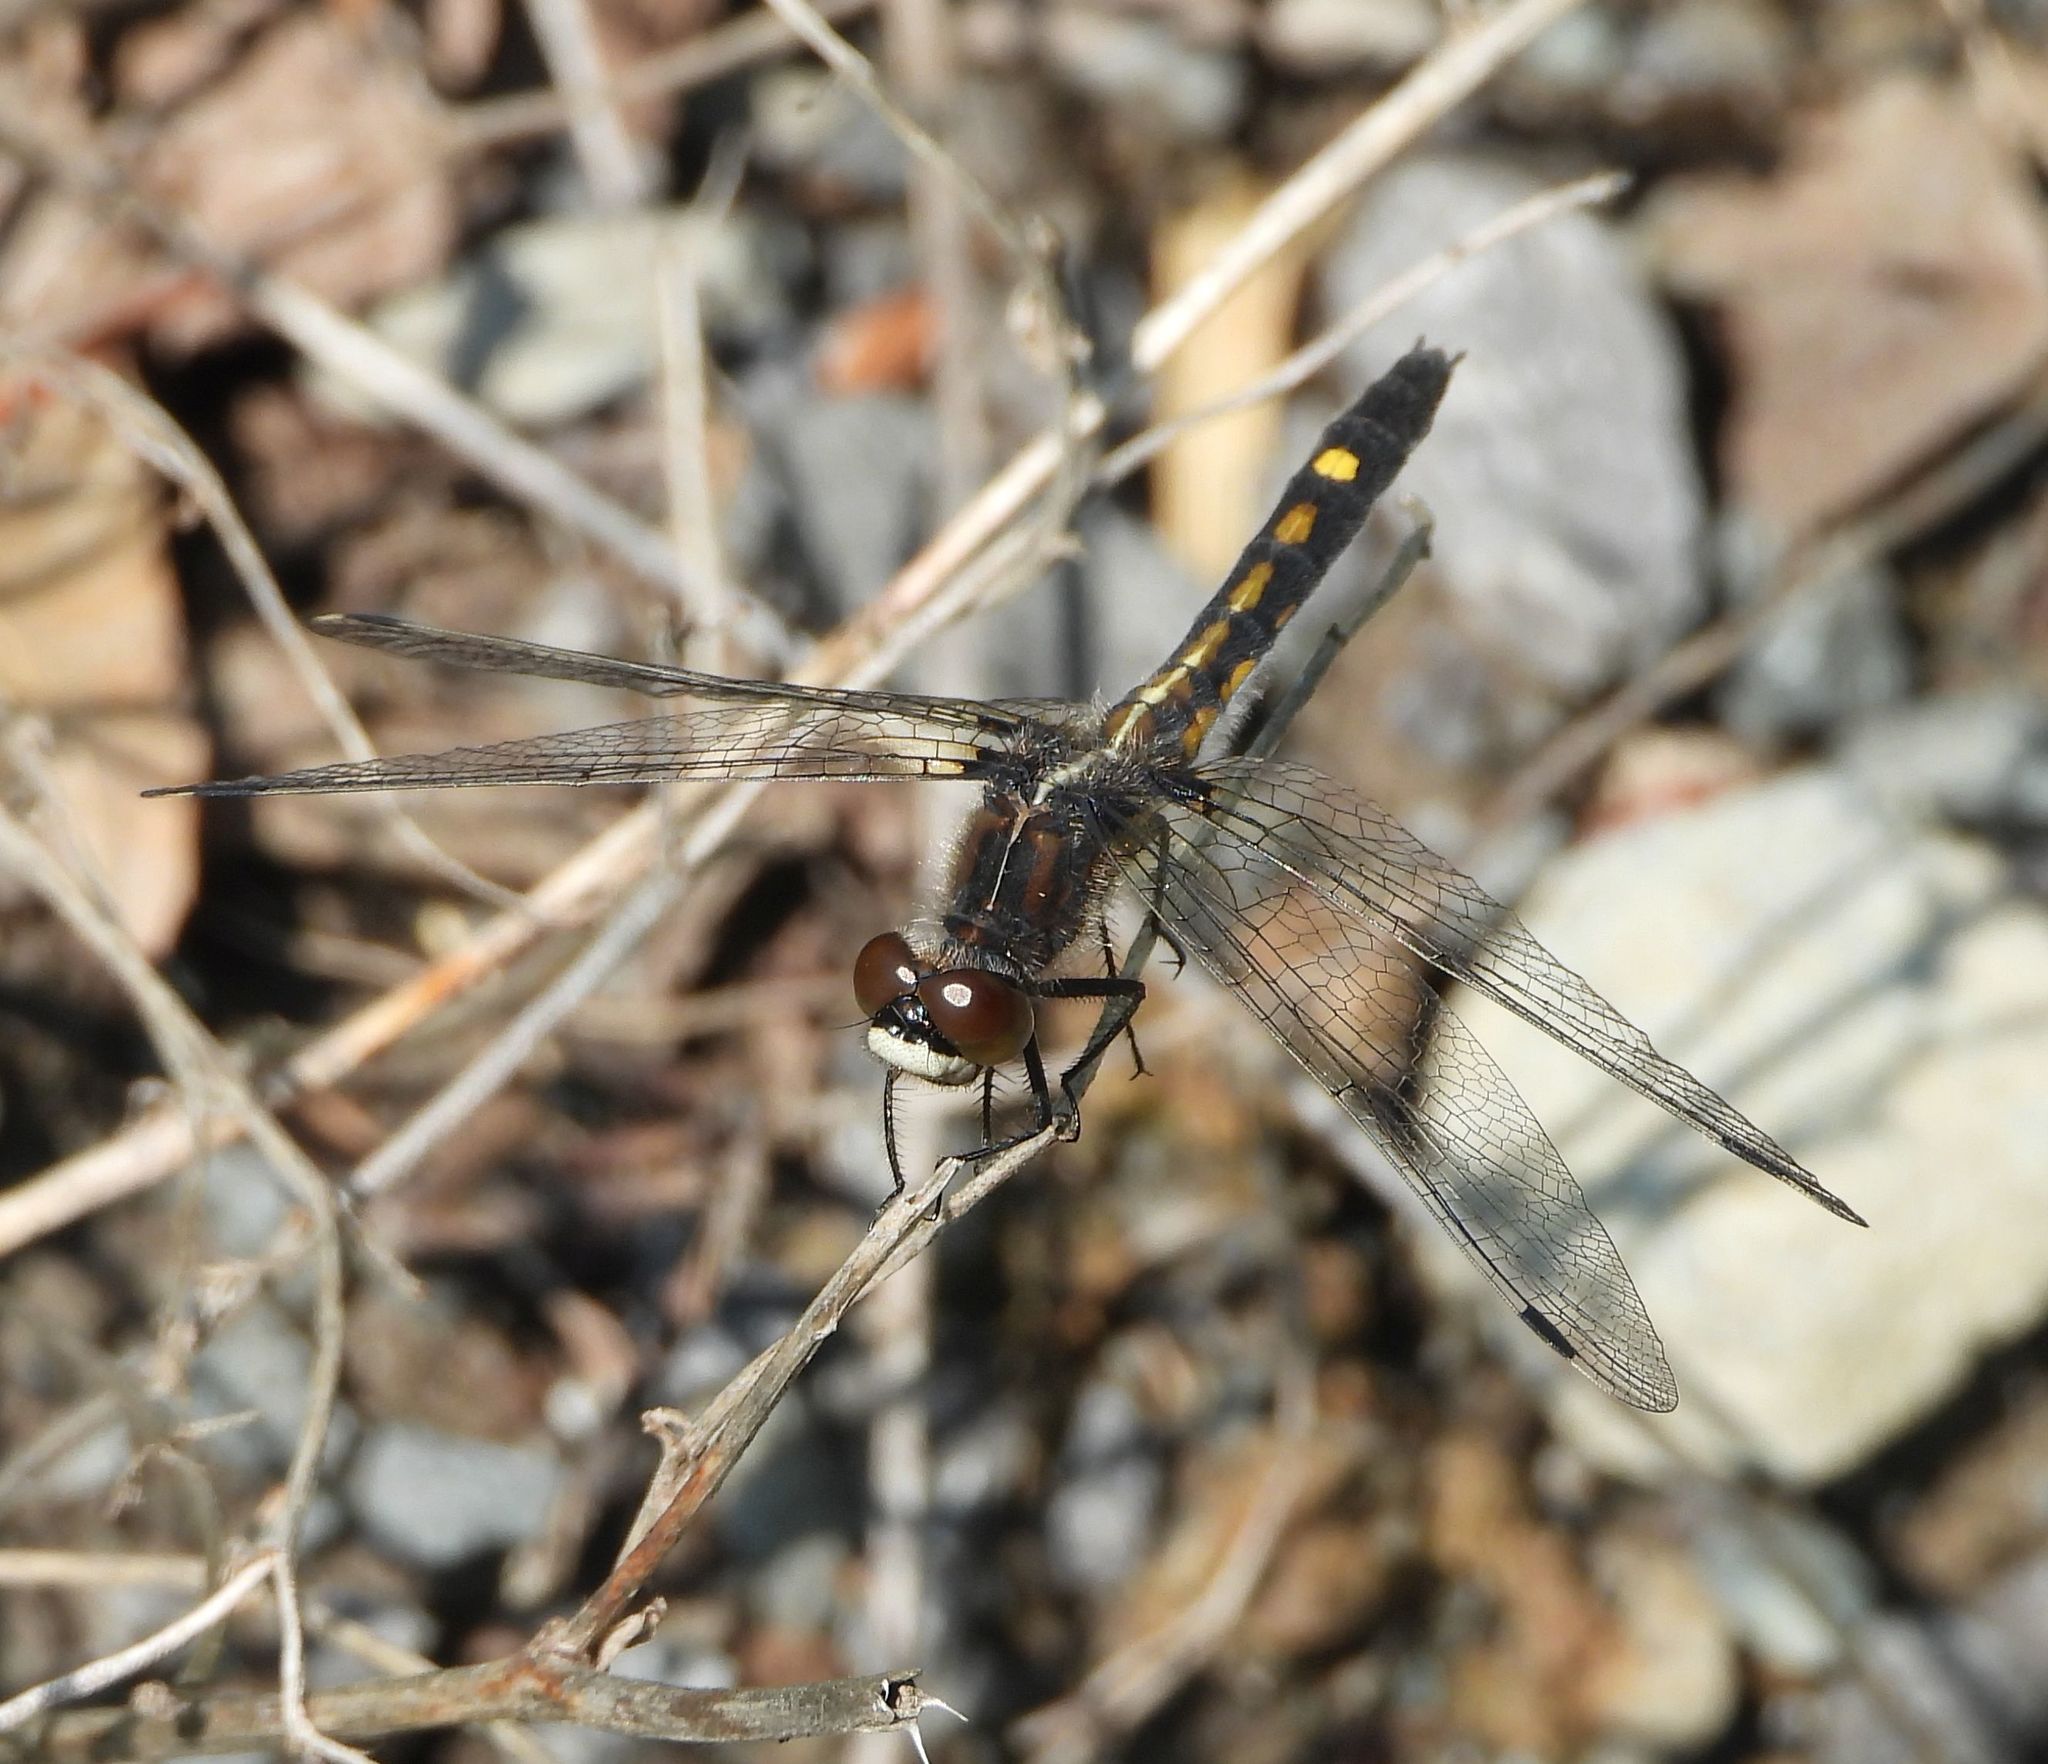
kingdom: Animalia
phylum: Arthropoda
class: Insecta
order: Odonata
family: Libellulidae
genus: Leucorrhinia
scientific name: Leucorrhinia intacta
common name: Dot-tailed whiteface
